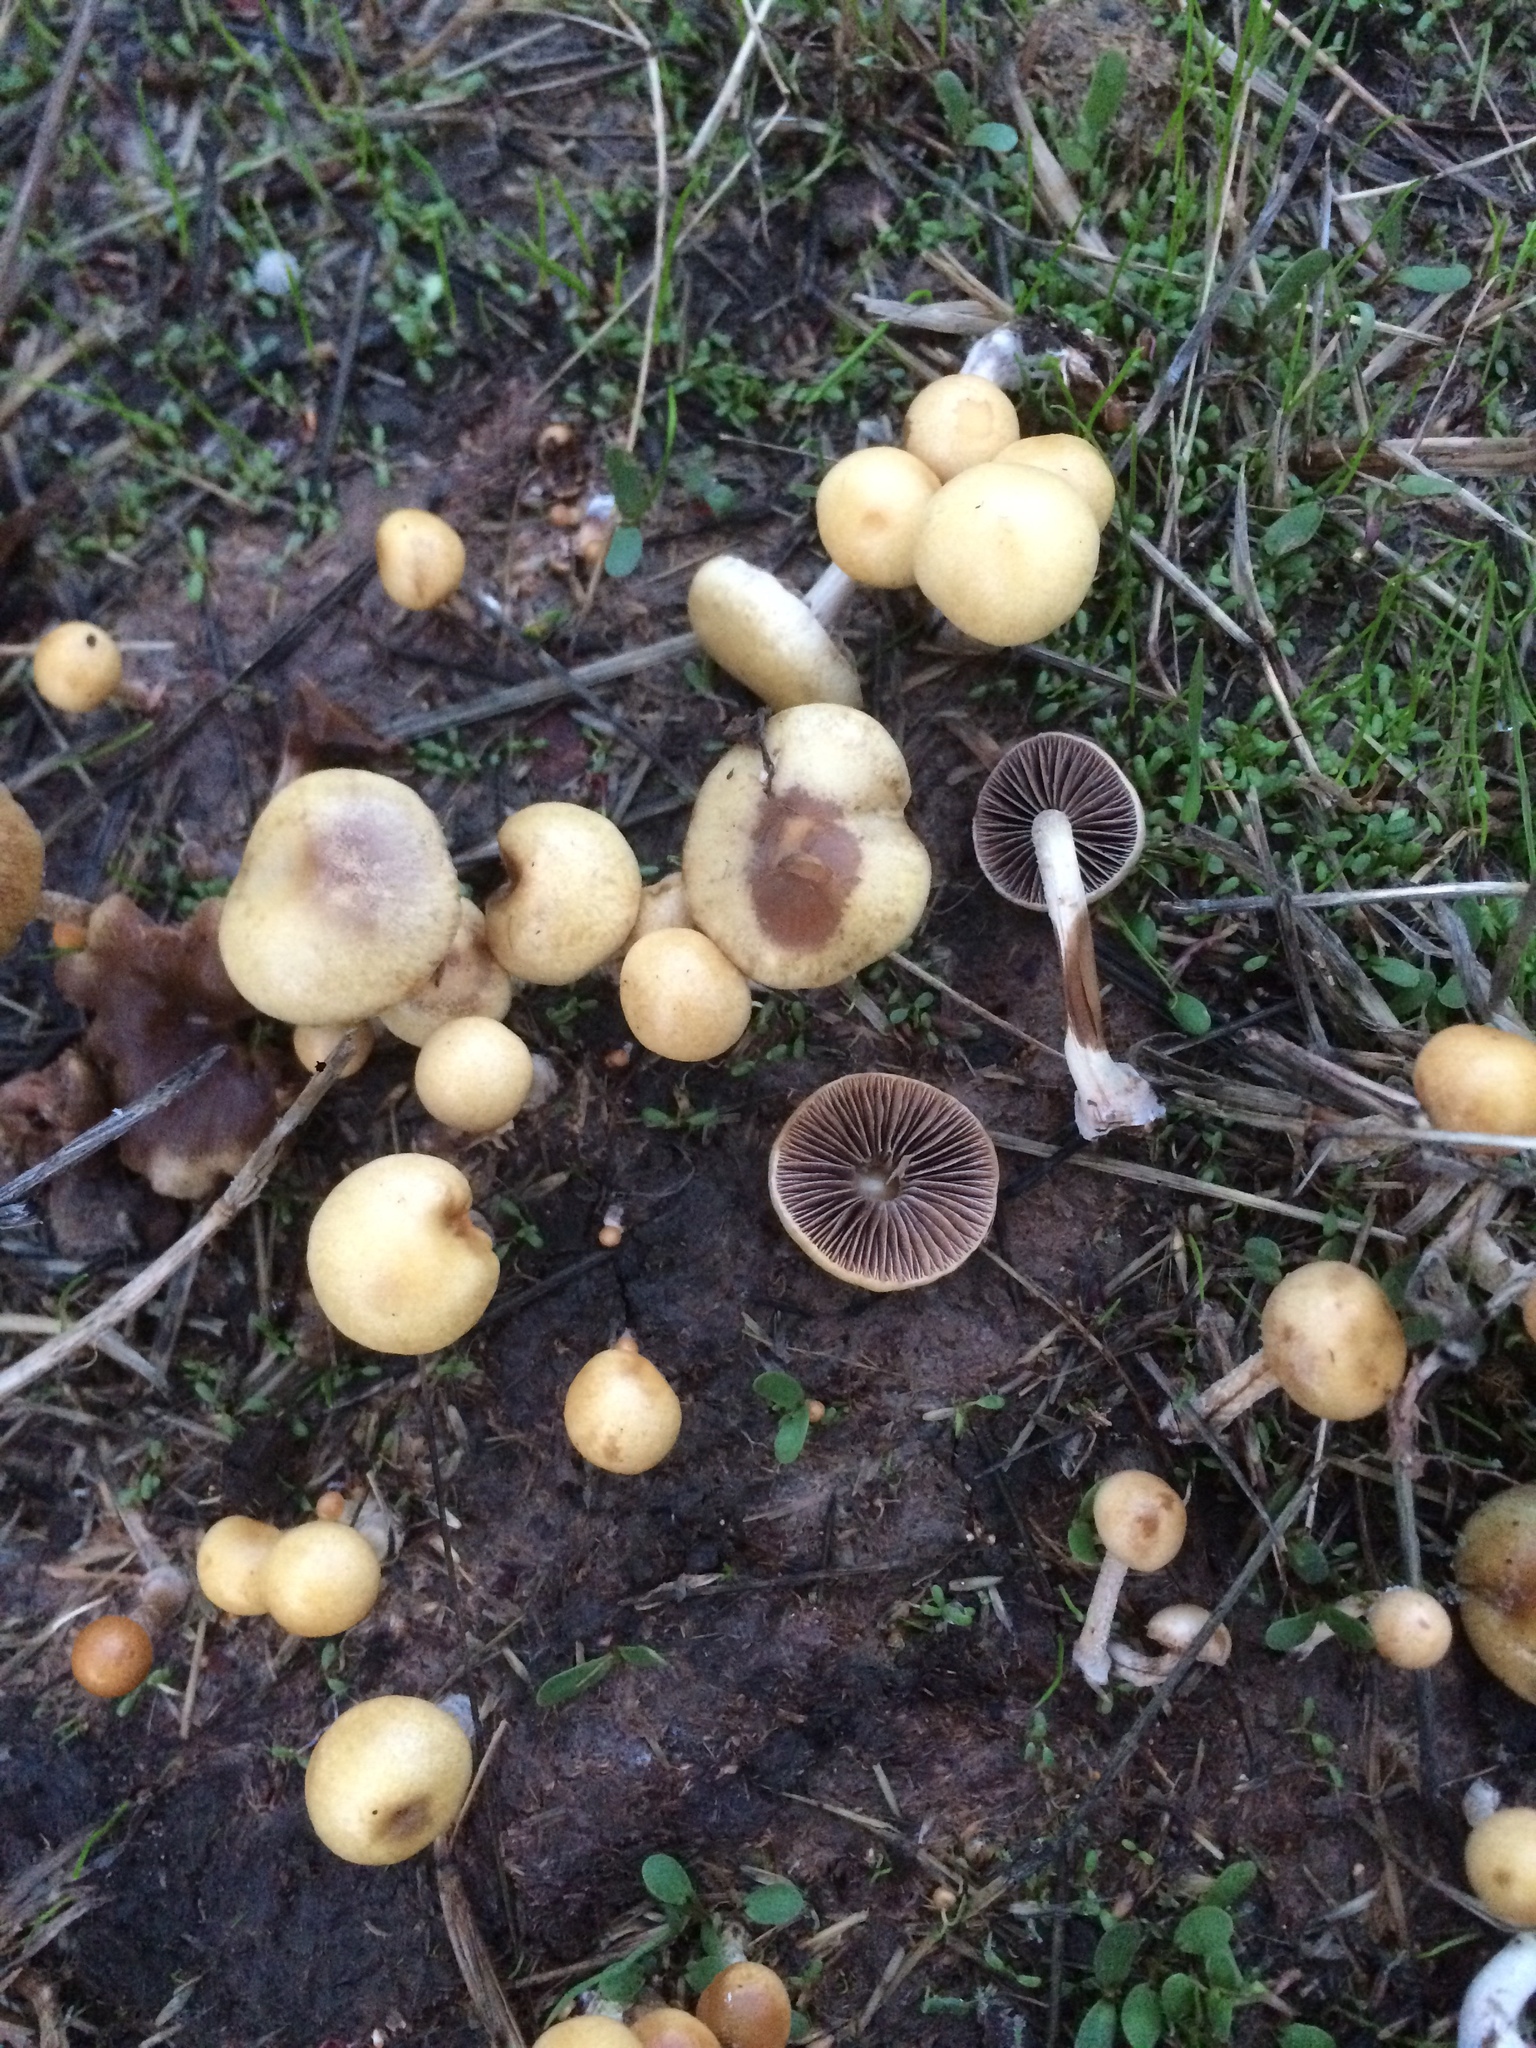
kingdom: Fungi
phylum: Basidiomycota
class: Agaricomycetes
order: Agaricales
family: Strophariaceae
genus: Leratiomyces
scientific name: Leratiomyces percevalii
